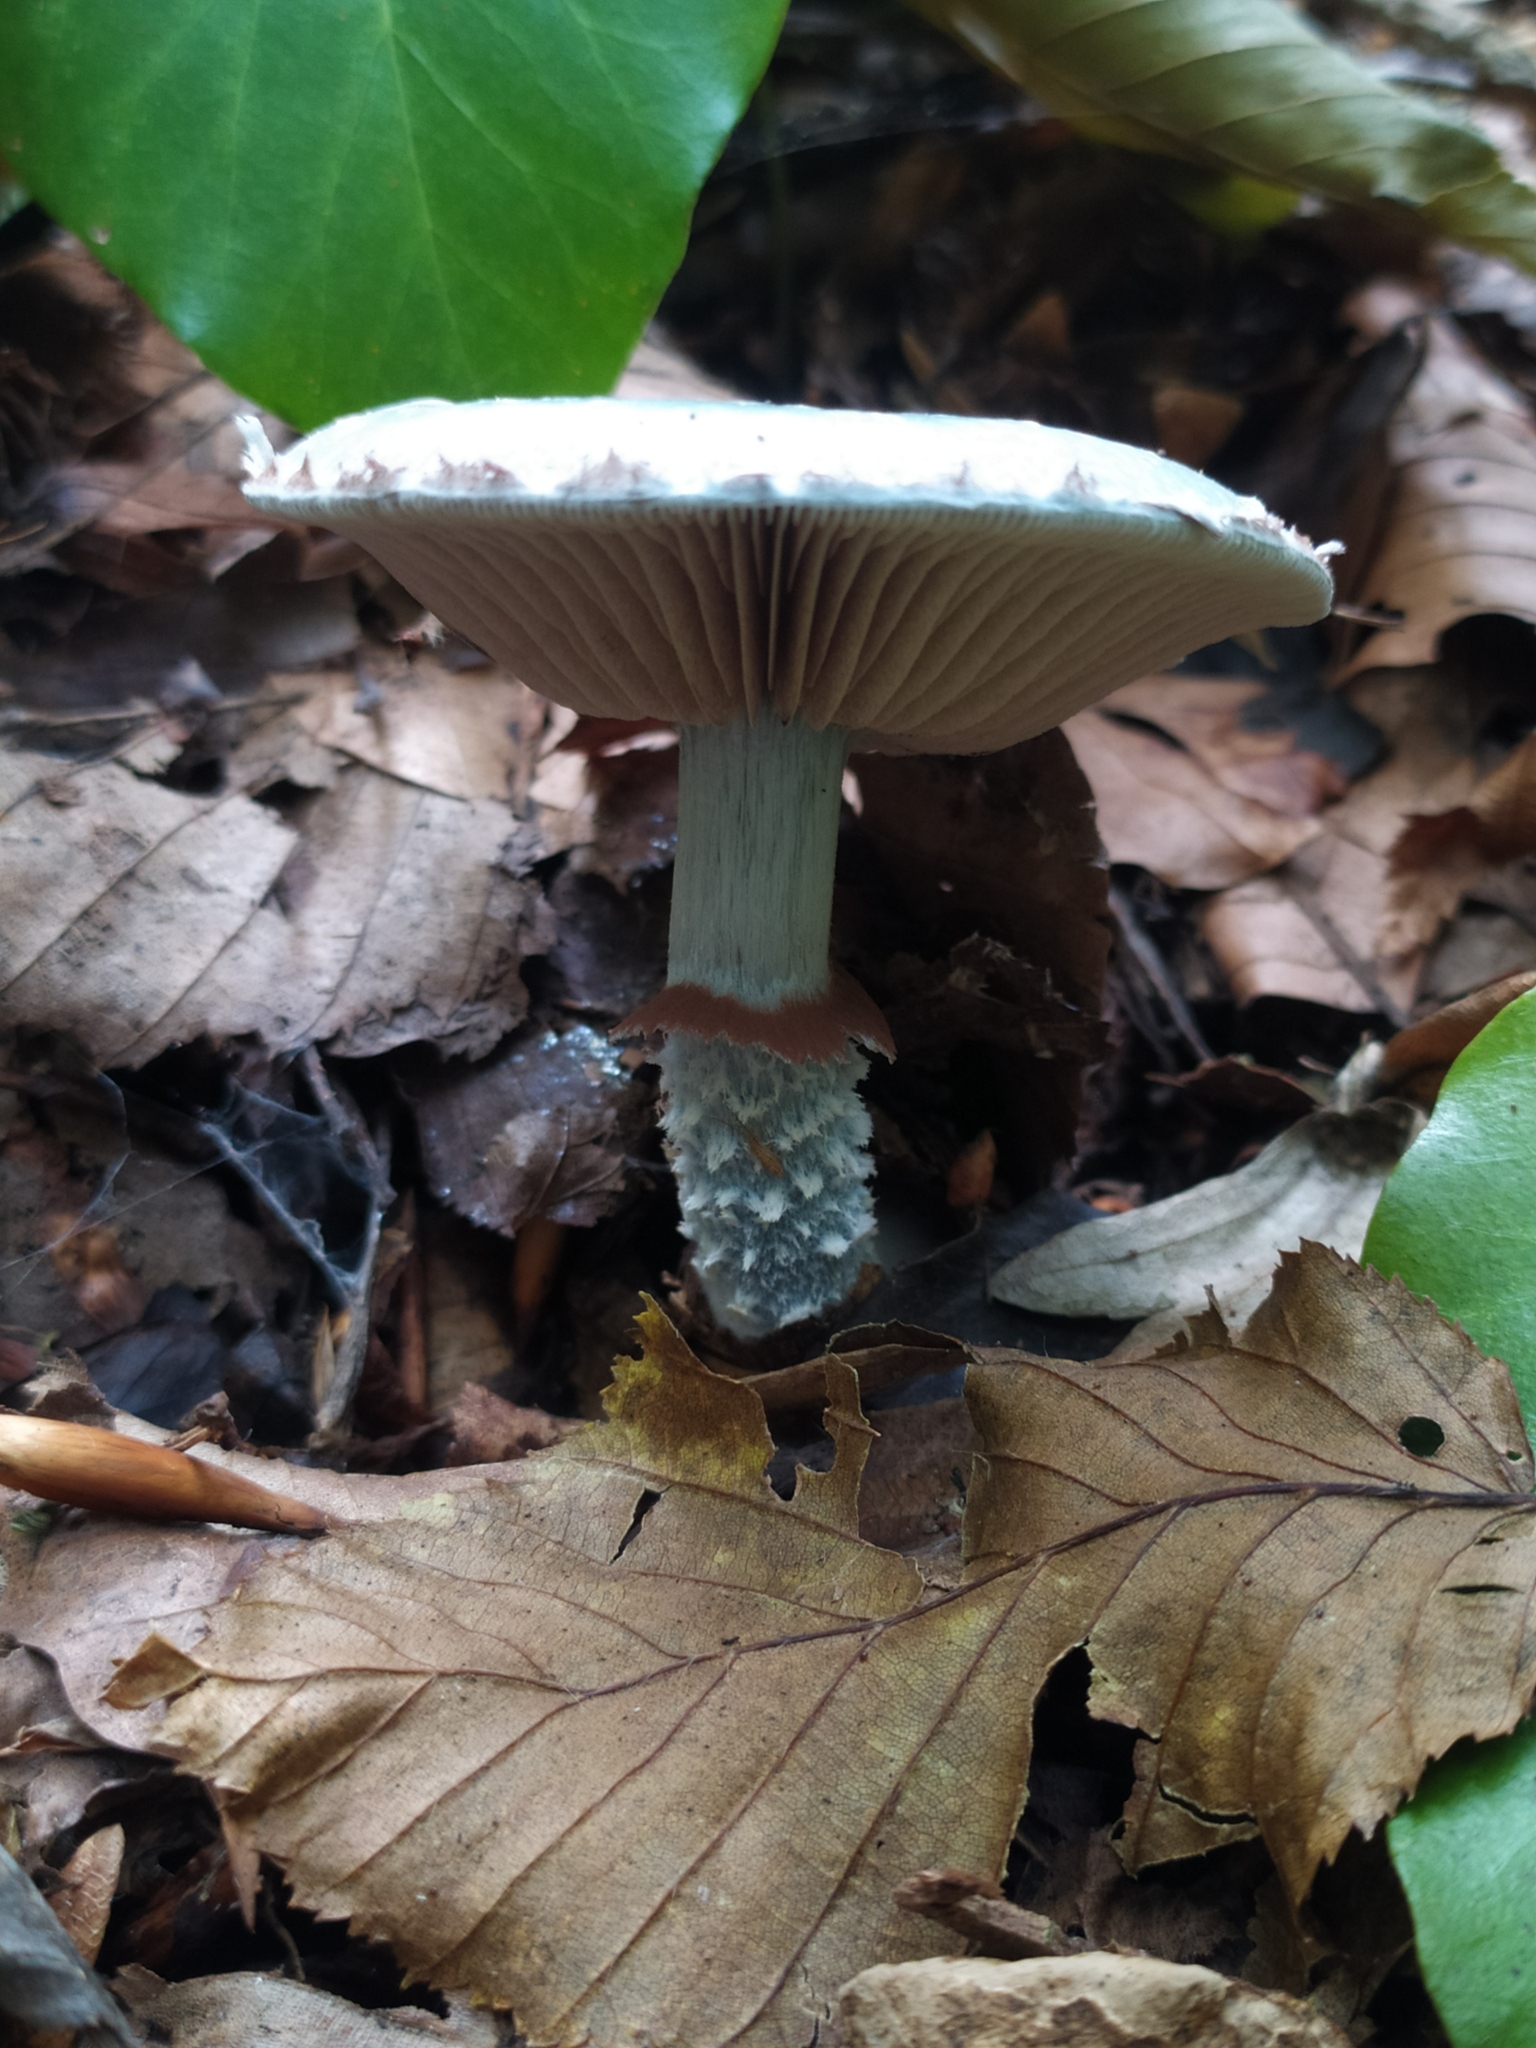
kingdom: Fungi
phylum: Basidiomycota
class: Agaricomycetes
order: Agaricales
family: Strophariaceae
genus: Stropharia
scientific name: Stropharia aeruginosa
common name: Verdigris roundhead
